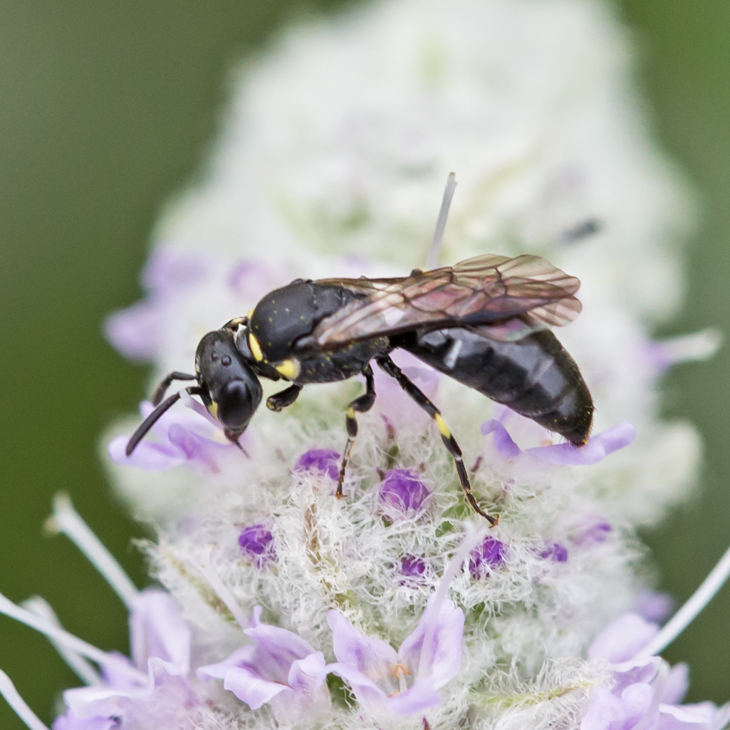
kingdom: Animalia
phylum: Arthropoda
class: Insecta
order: Hymenoptera
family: Colletidae
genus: Hylaeus
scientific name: Hylaeus modestus
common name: Yellow-faced bee
